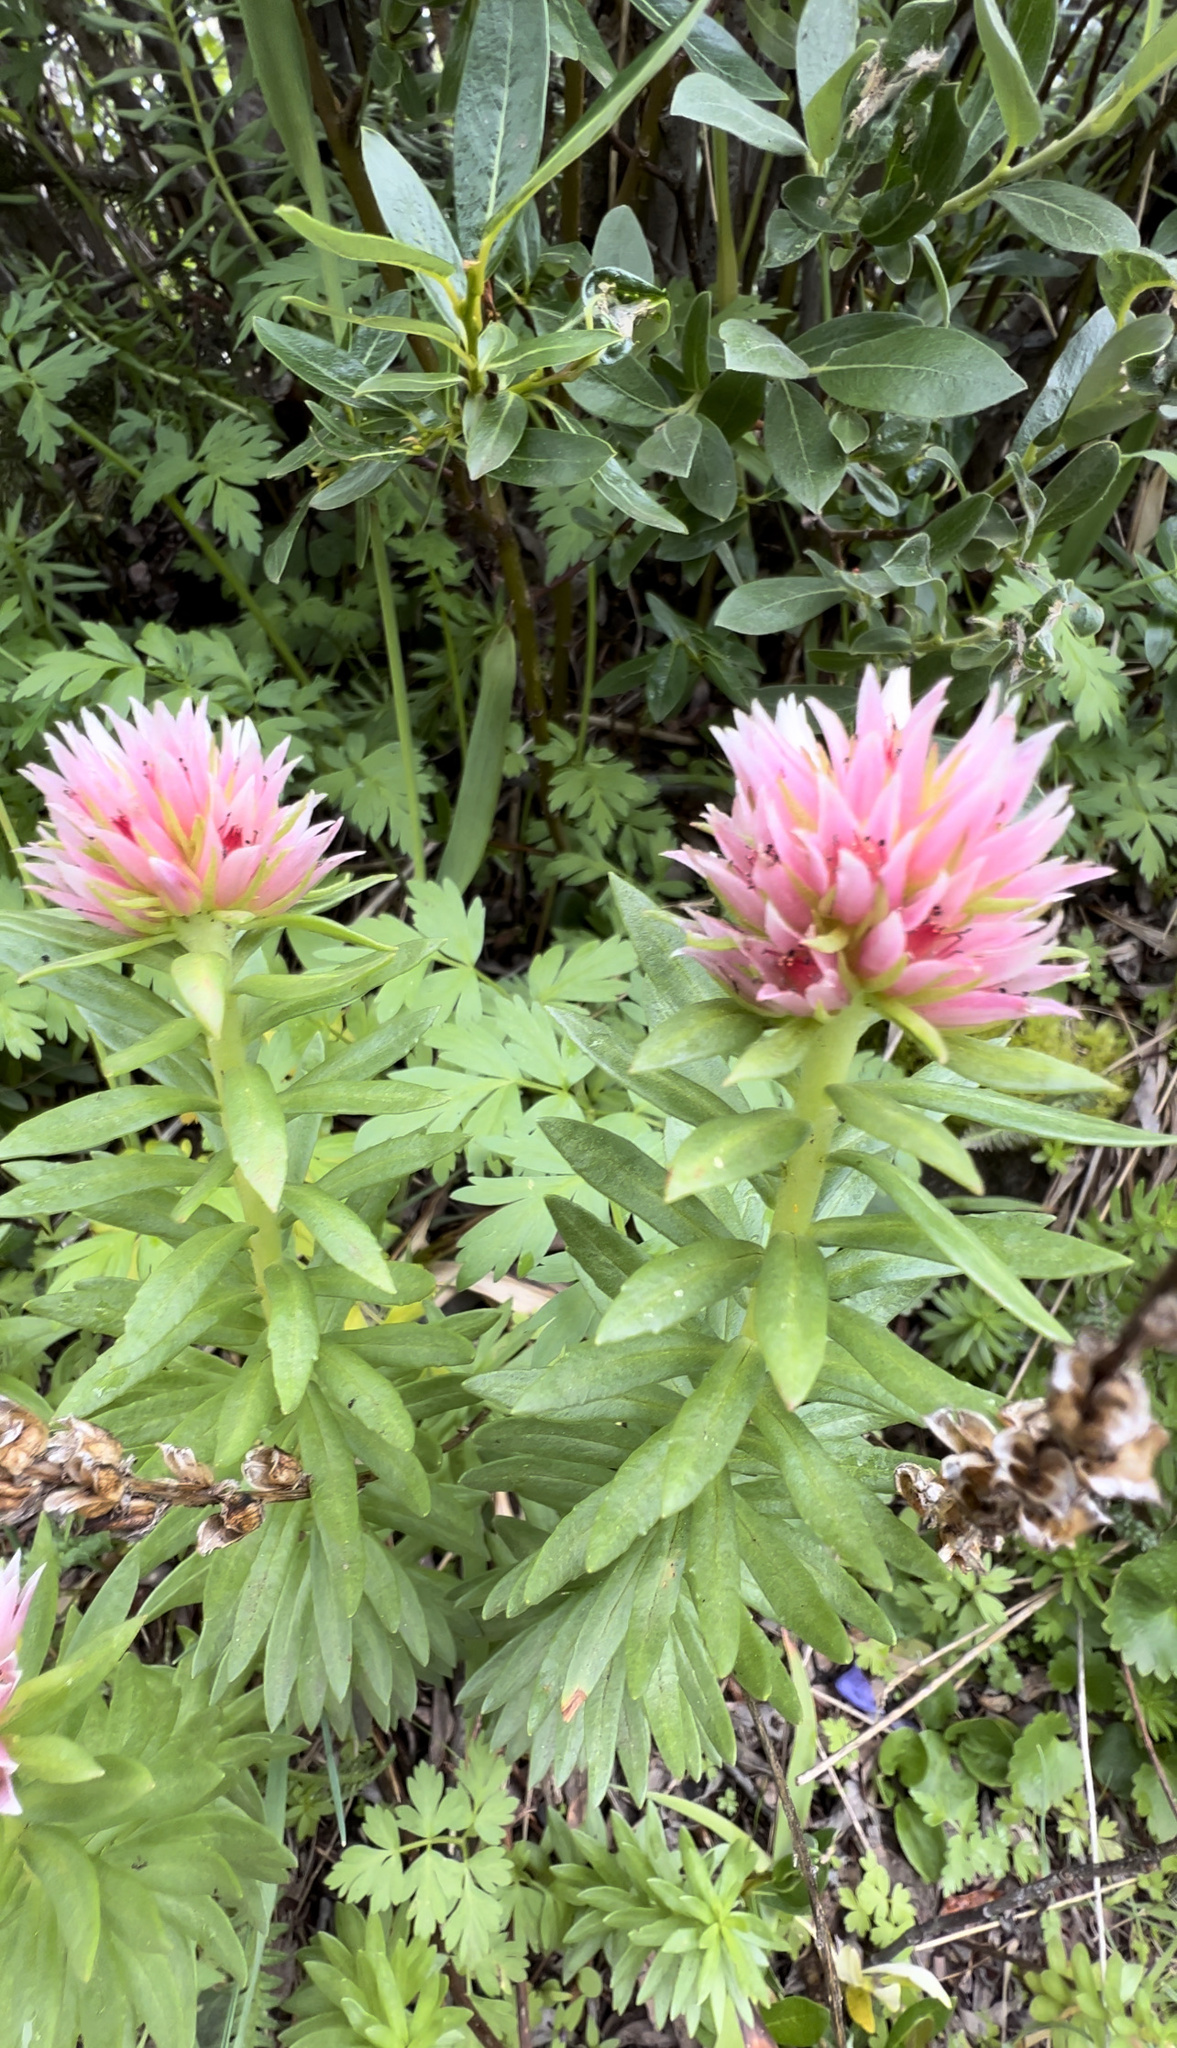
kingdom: Plantae
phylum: Tracheophyta
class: Magnoliopsida
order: Saxifragales
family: Crassulaceae
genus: Rhodiola
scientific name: Rhodiola rhodantha
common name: Red orpine
